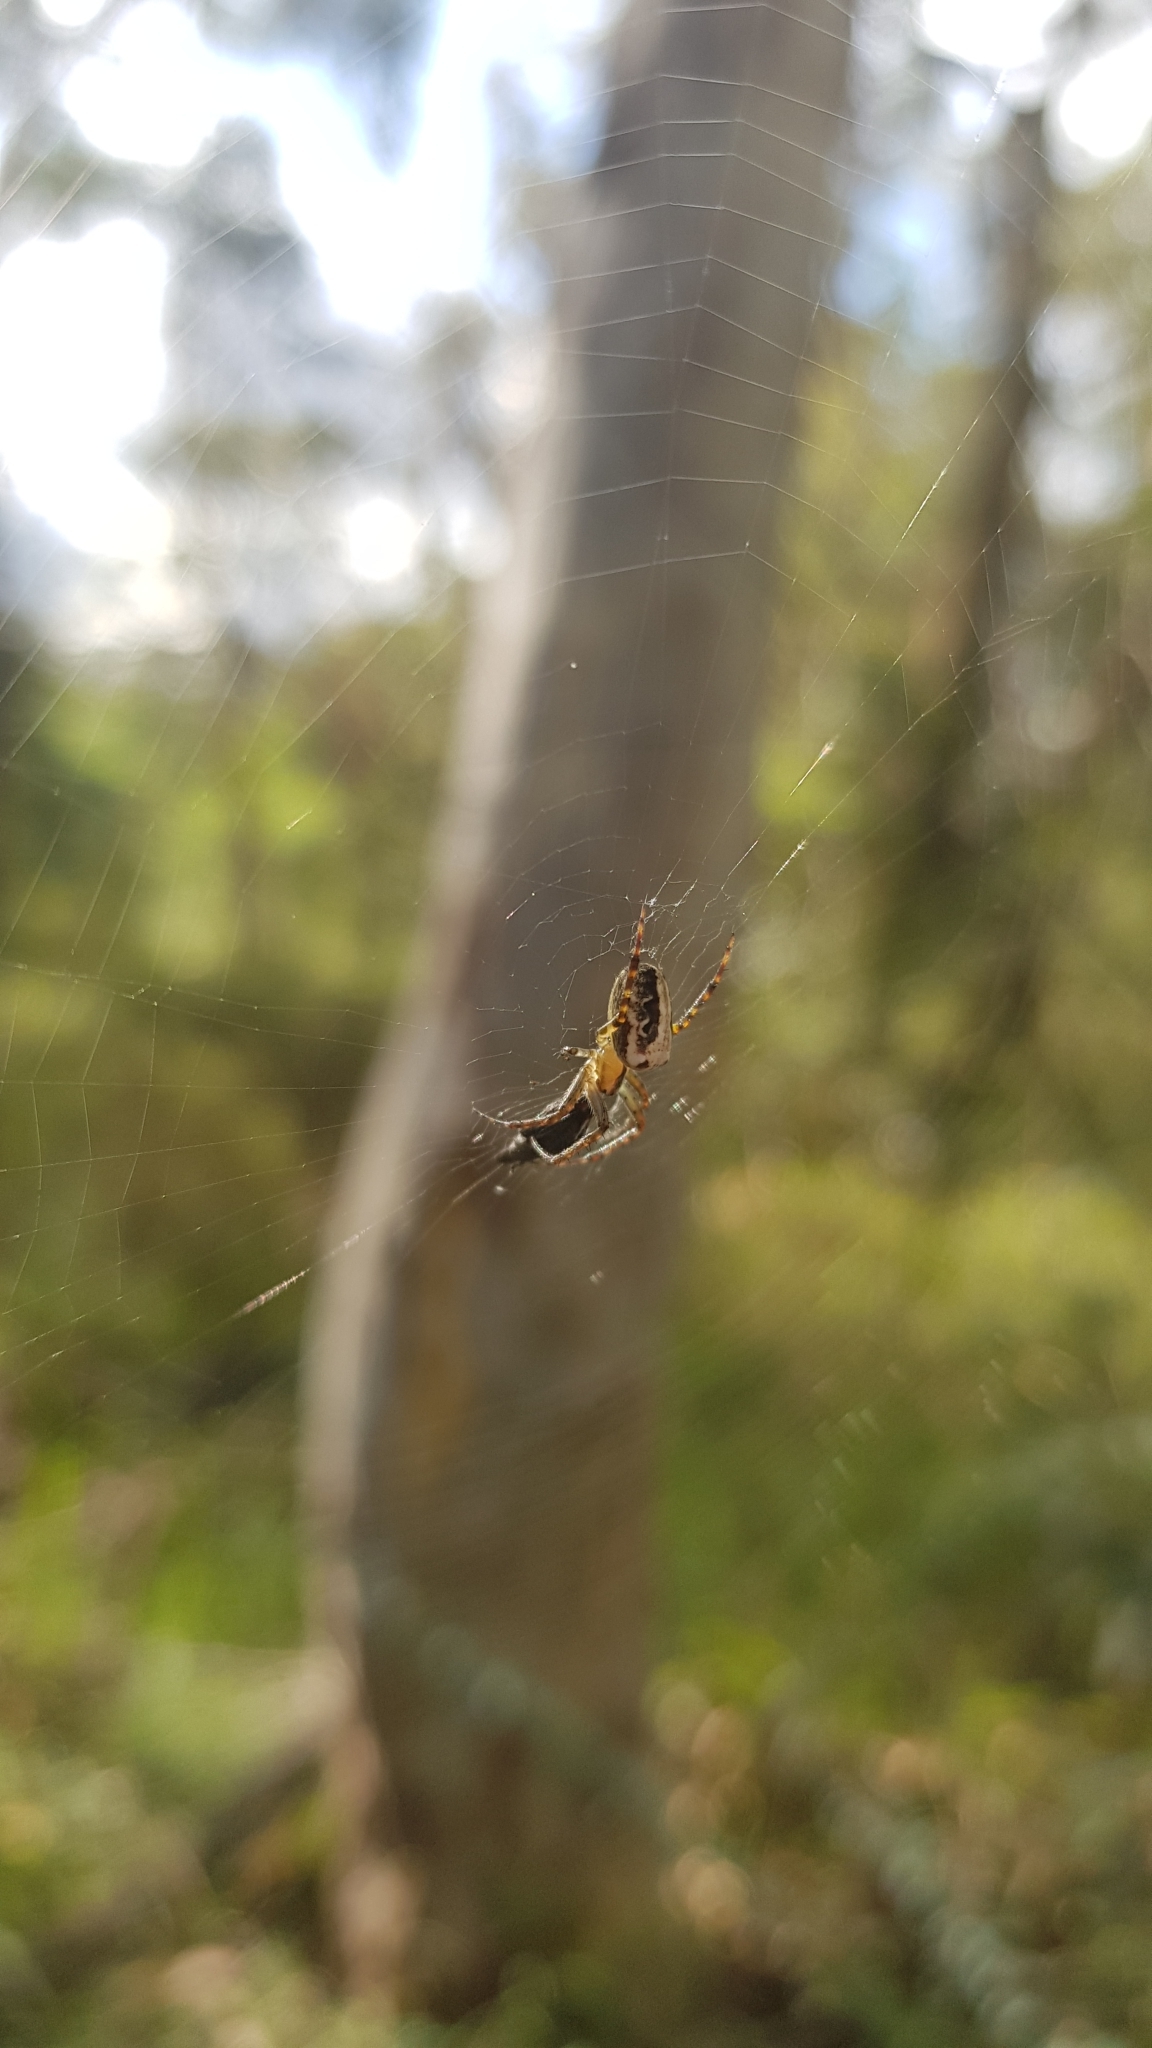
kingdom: Animalia
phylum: Arthropoda
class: Arachnida
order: Araneae
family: Araneidae
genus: Plebs
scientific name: Plebs eburnus
